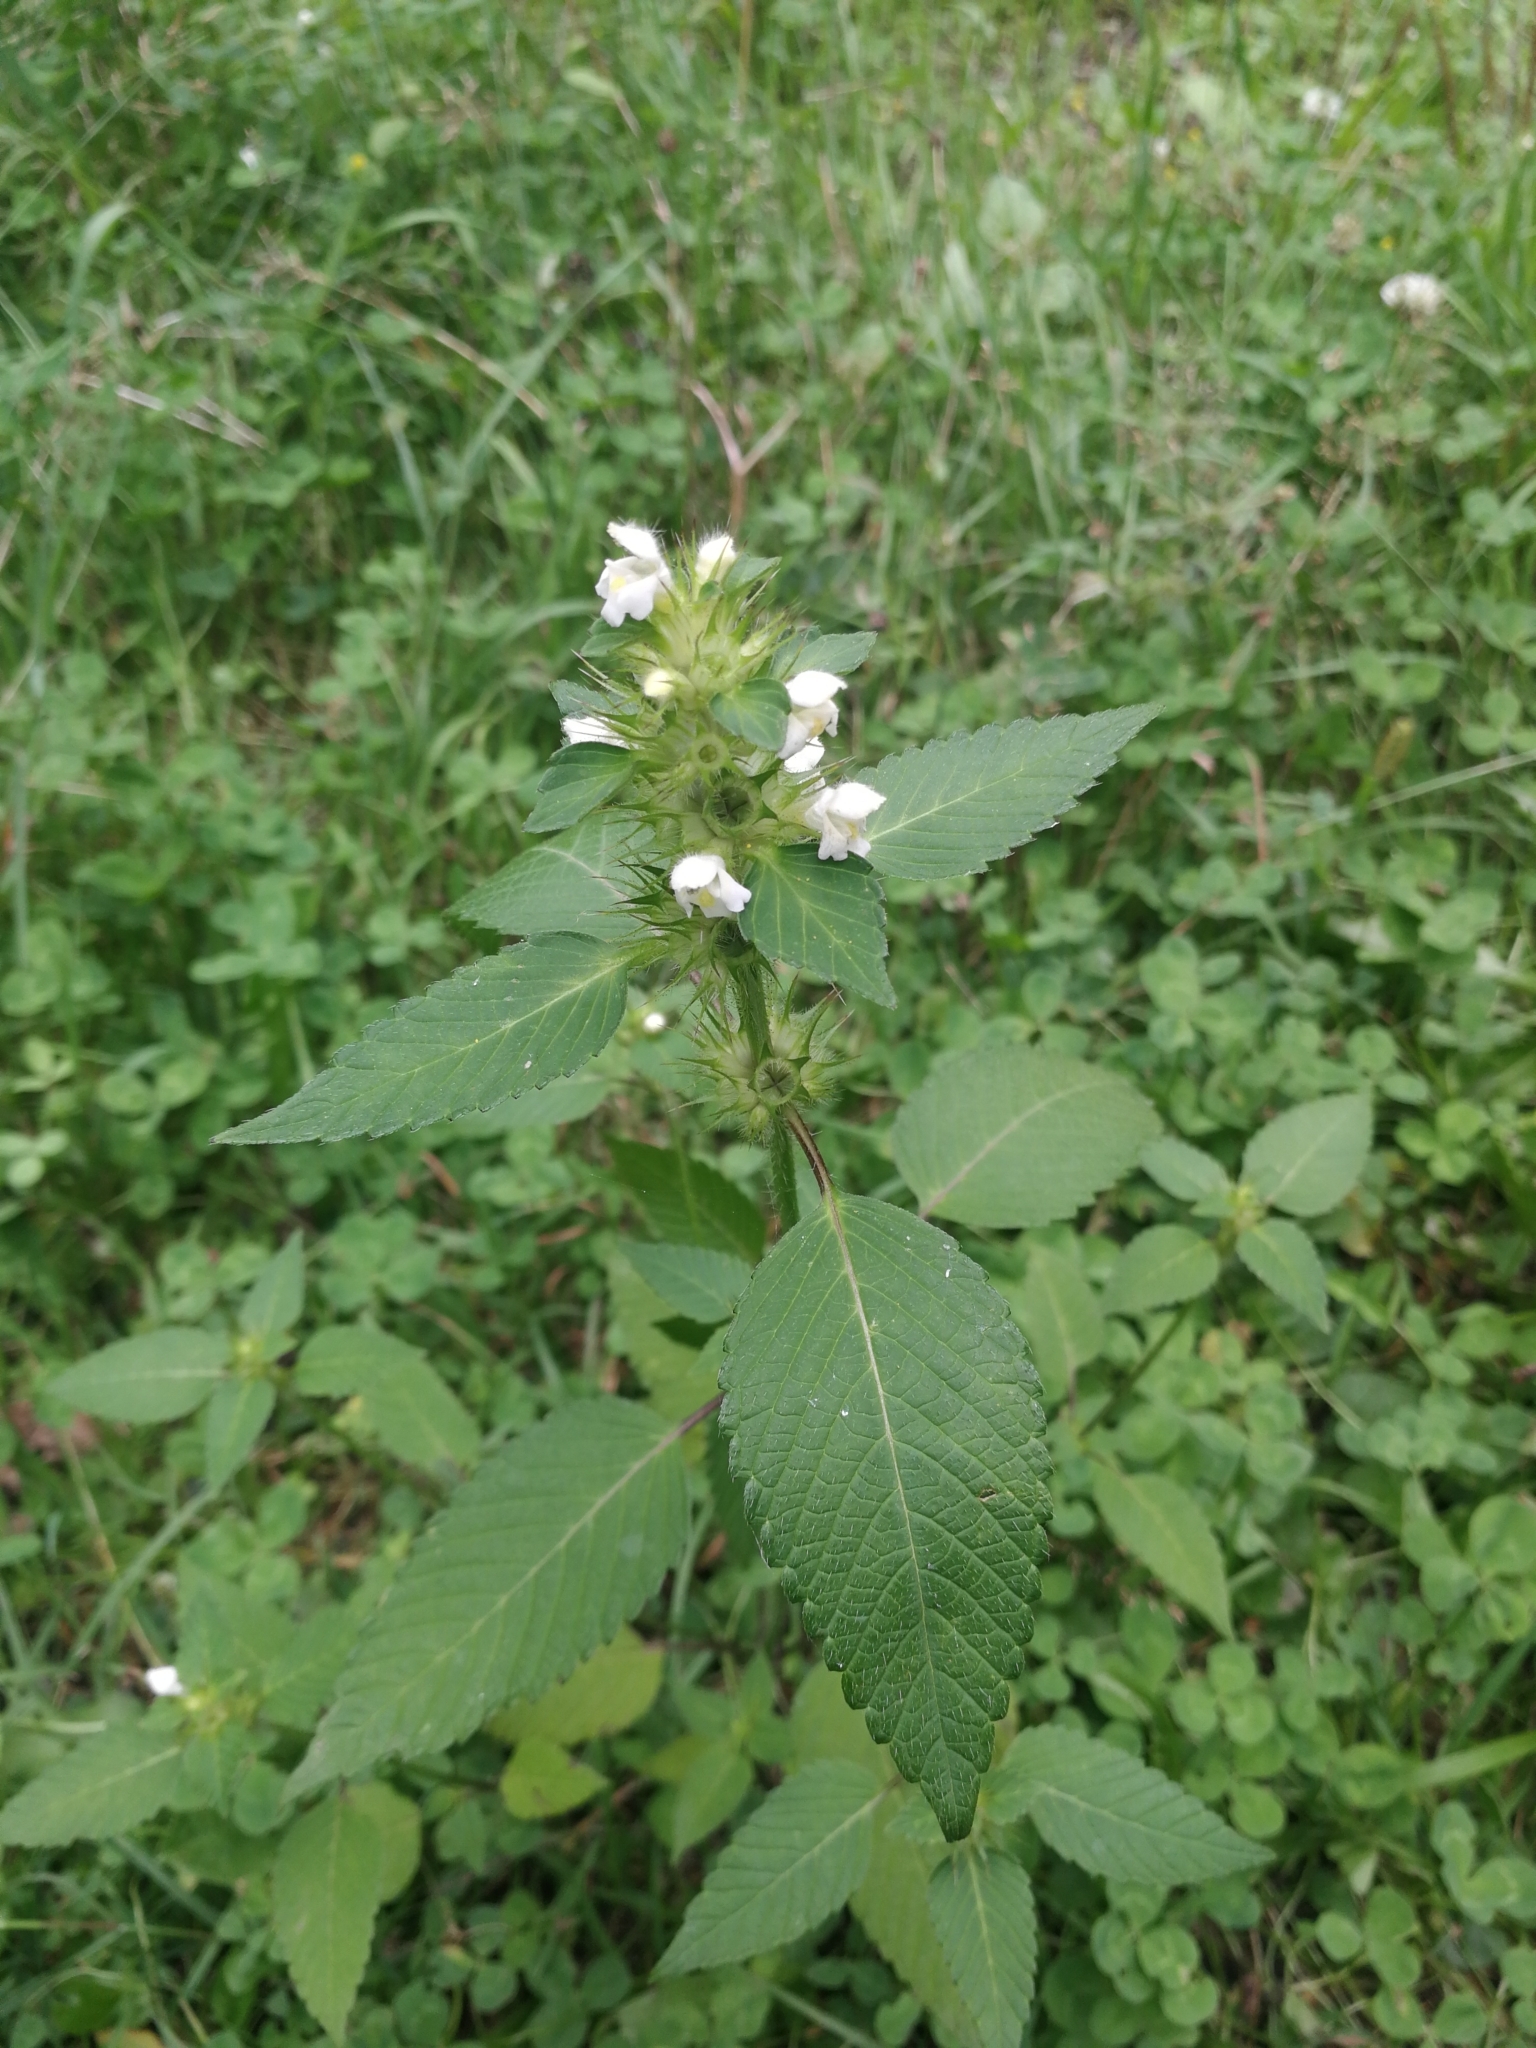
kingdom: Plantae
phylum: Tracheophyta
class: Magnoliopsida
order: Lamiales
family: Lamiaceae
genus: Galeopsis
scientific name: Galeopsis tetrahit
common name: Common hemp-nettle
